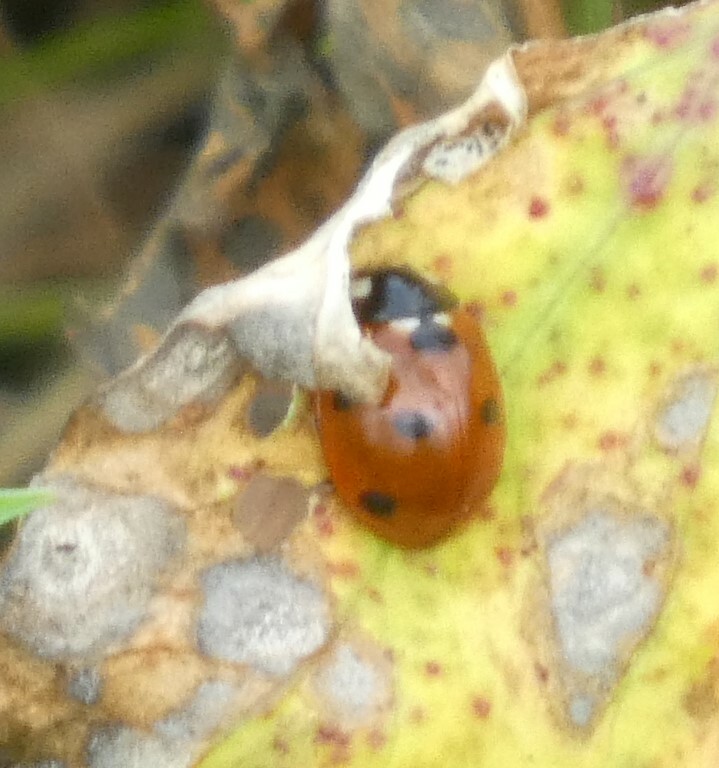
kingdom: Animalia
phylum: Arthropoda
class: Insecta
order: Coleoptera
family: Coccinellidae
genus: Coccinella
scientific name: Coccinella septempunctata
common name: Sevenspotted lady beetle
